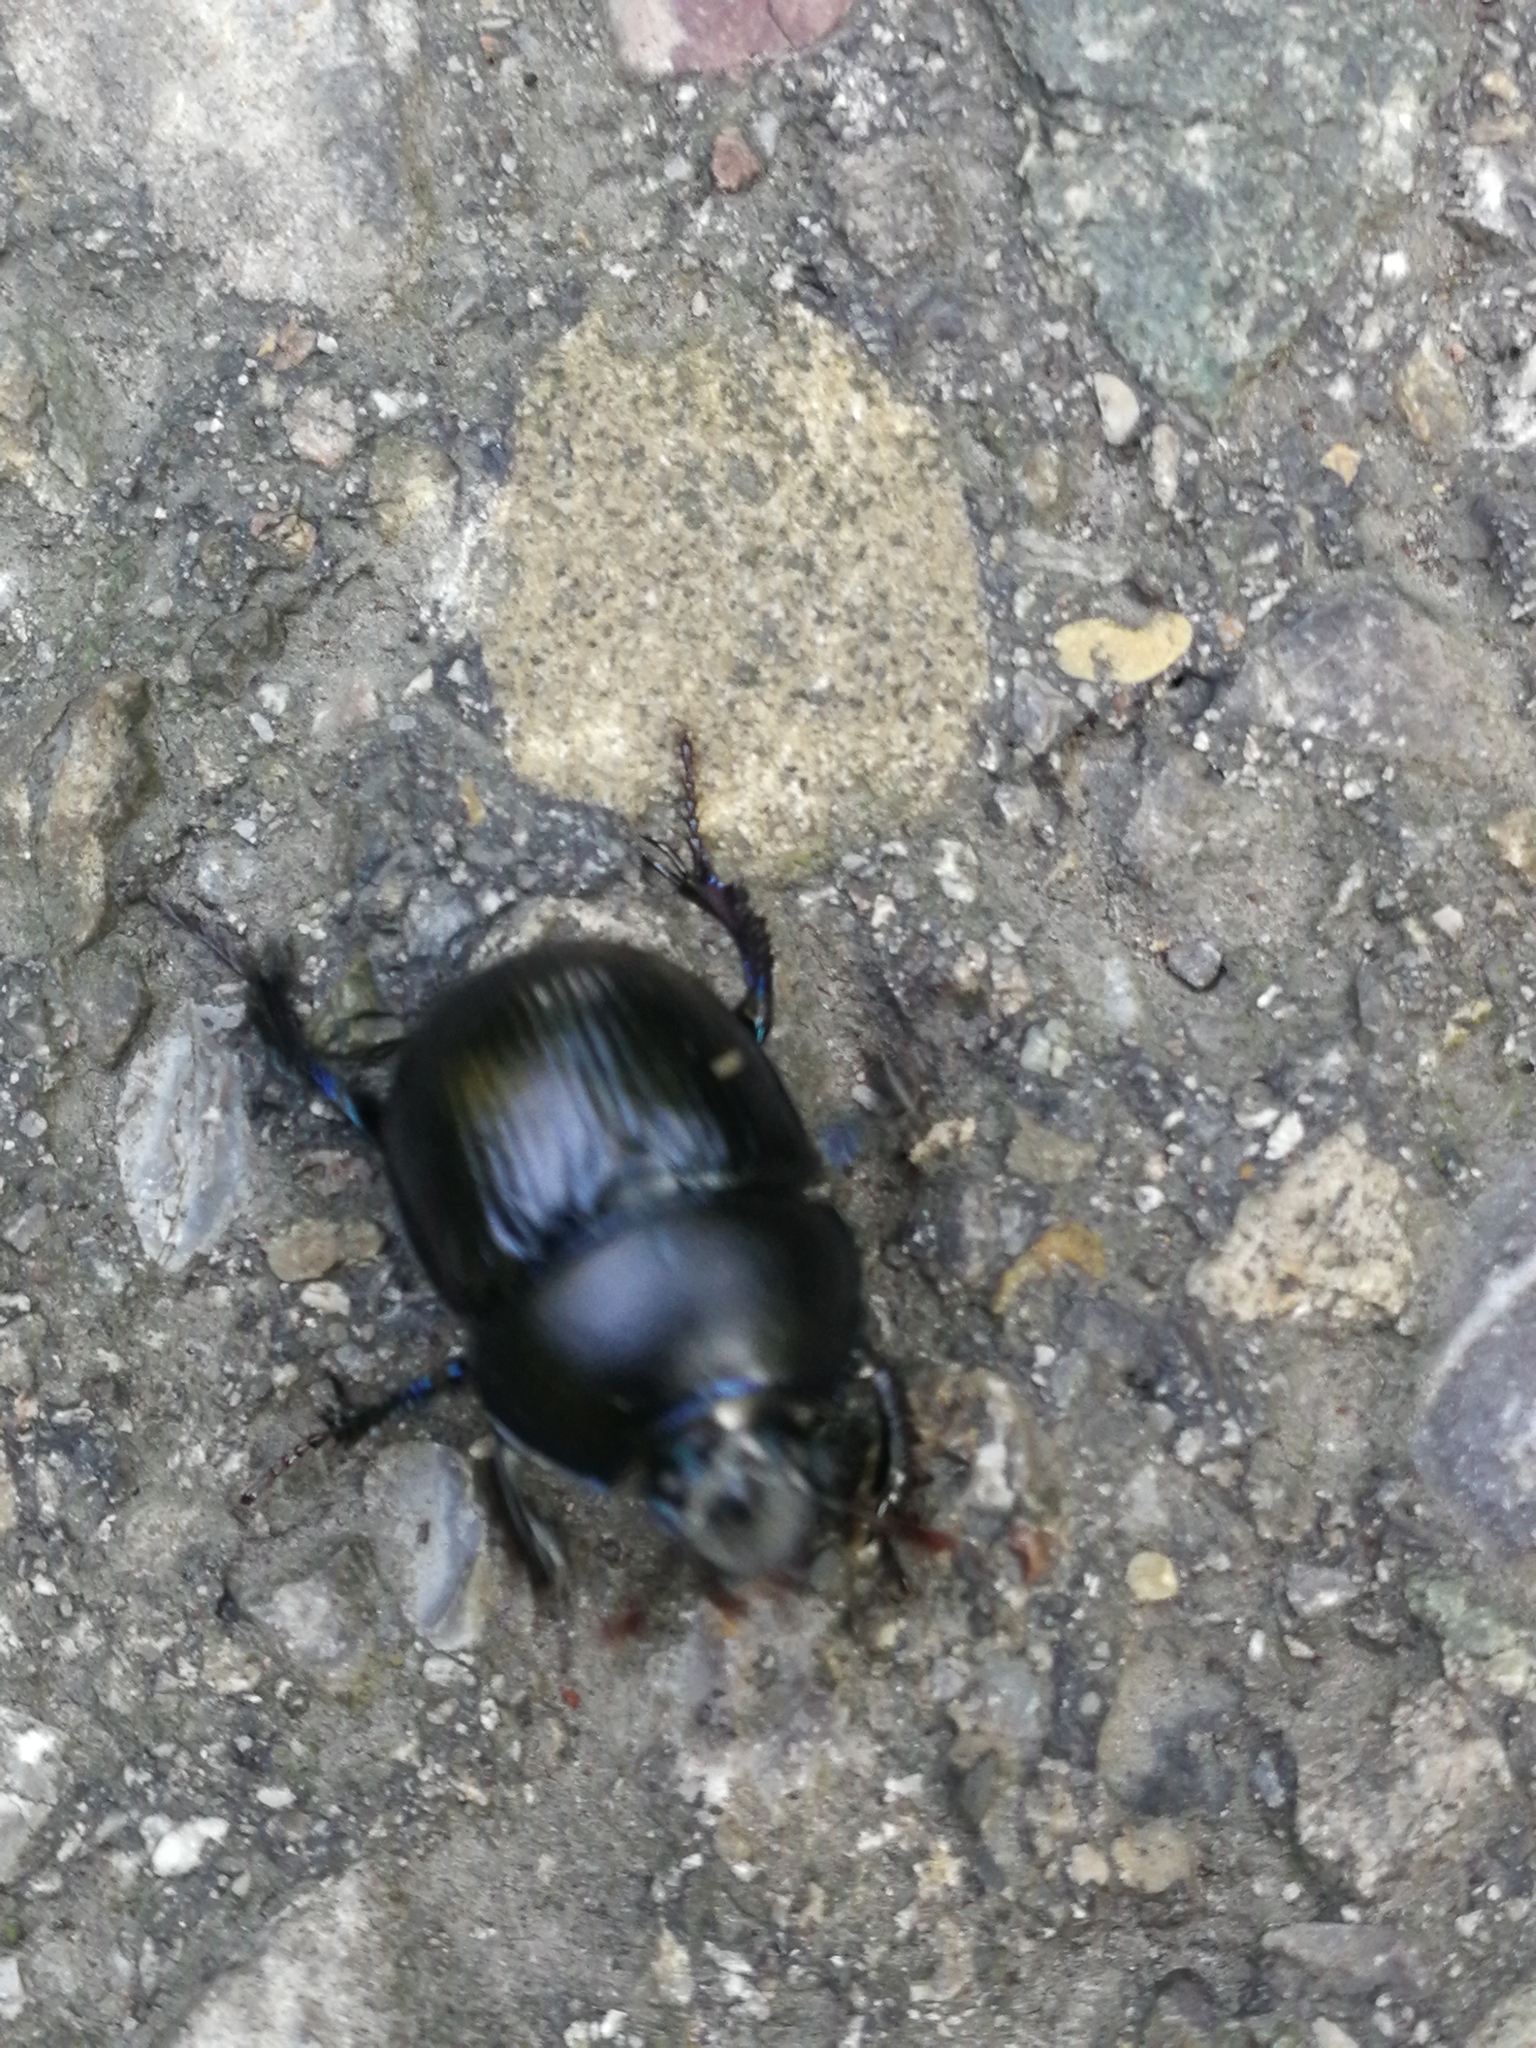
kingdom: Animalia
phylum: Arthropoda
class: Insecta
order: Coleoptera
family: Geotrupidae
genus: Anoplotrupes
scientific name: Anoplotrupes stercorosus
